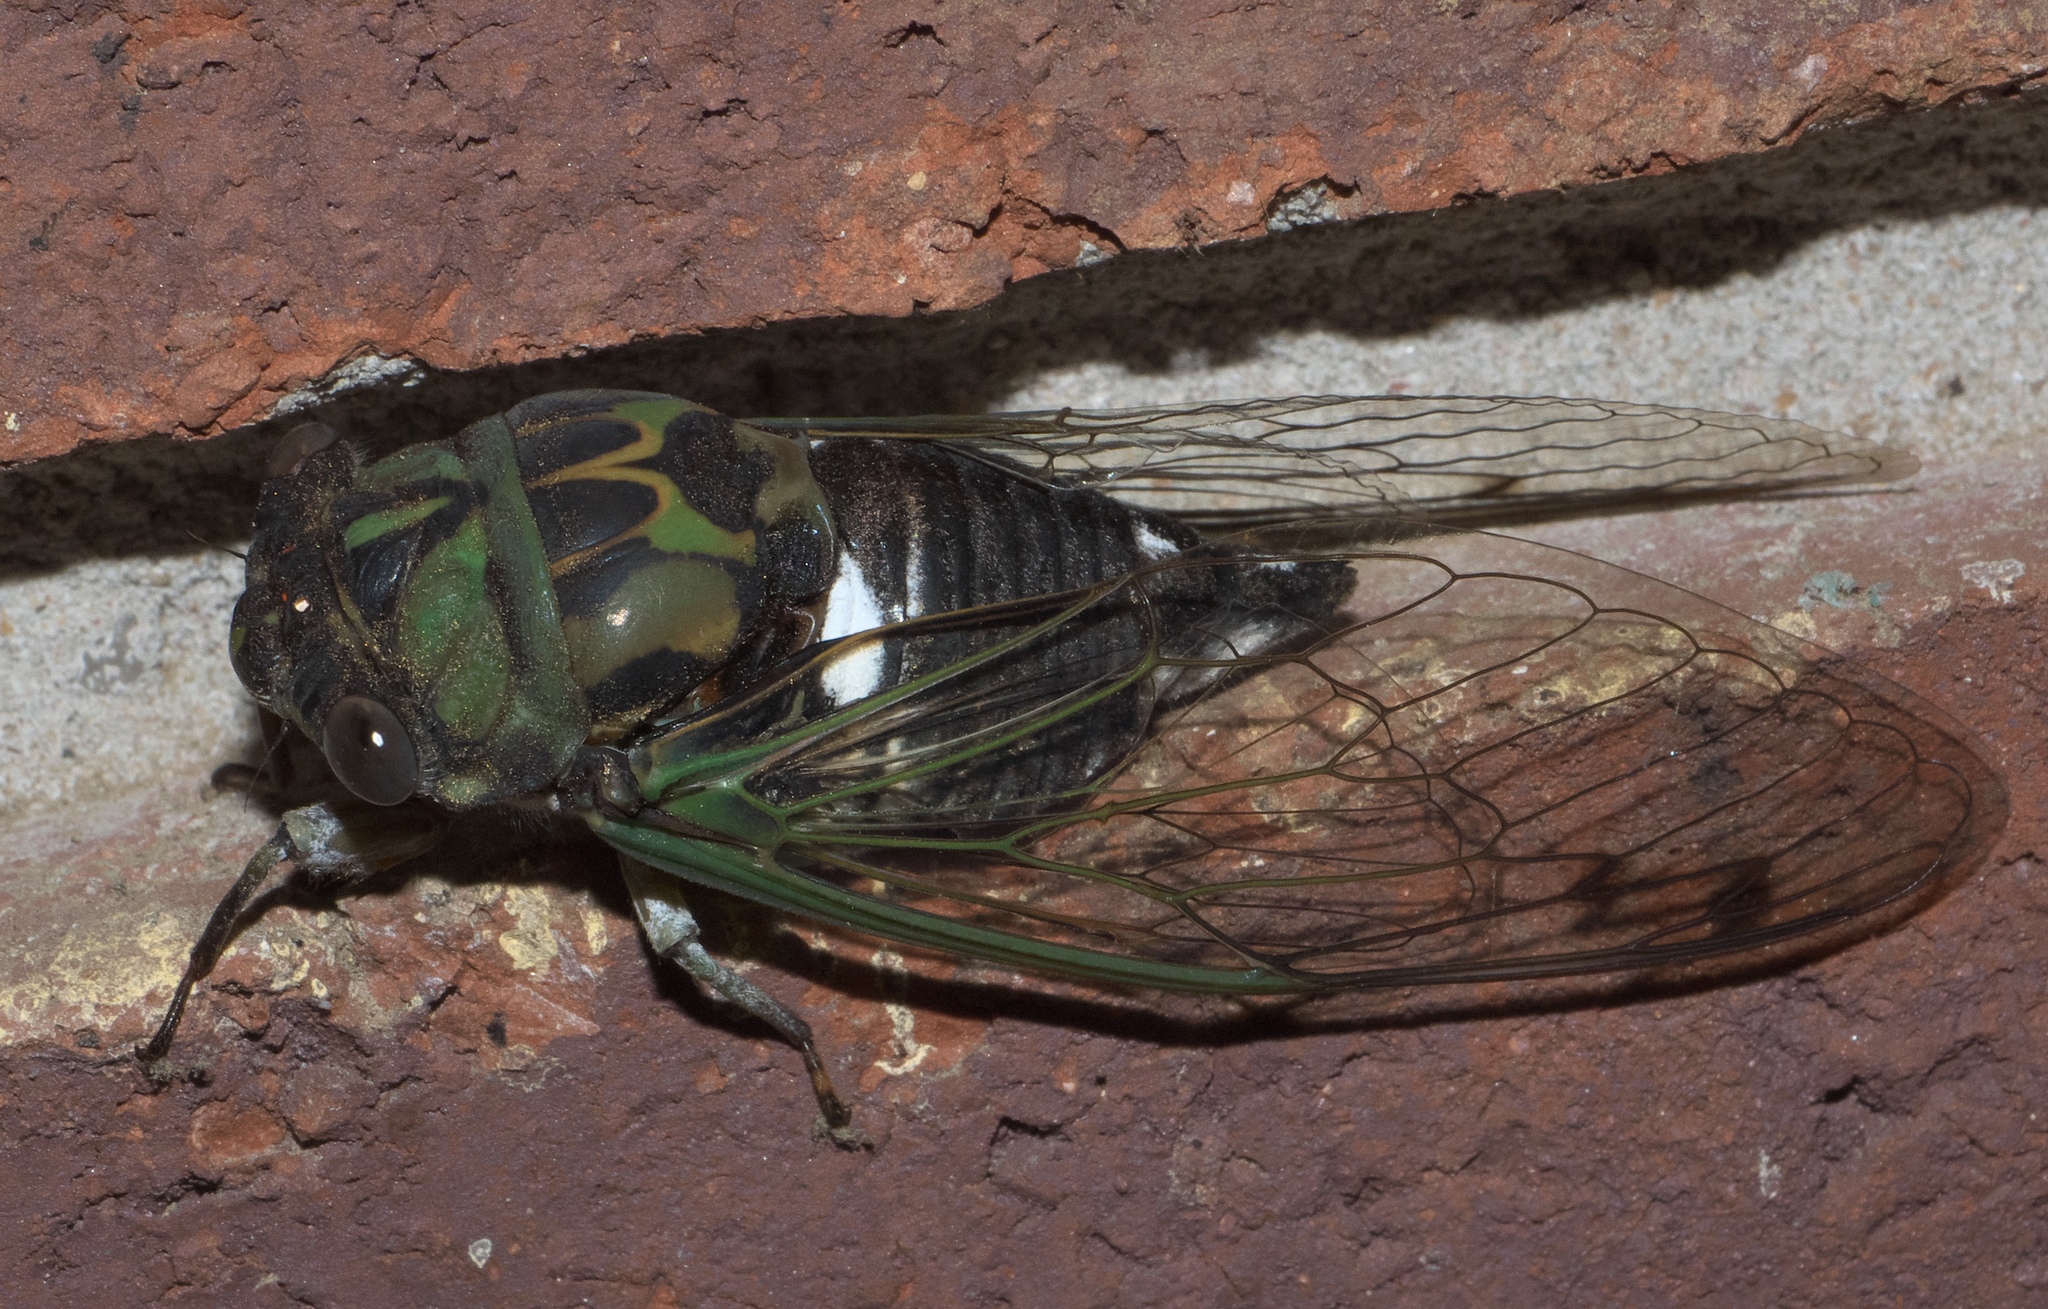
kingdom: Animalia
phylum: Arthropoda
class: Insecta
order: Hemiptera
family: Cicadidae
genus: Neotibicen
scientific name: Neotibicen pruinosus
